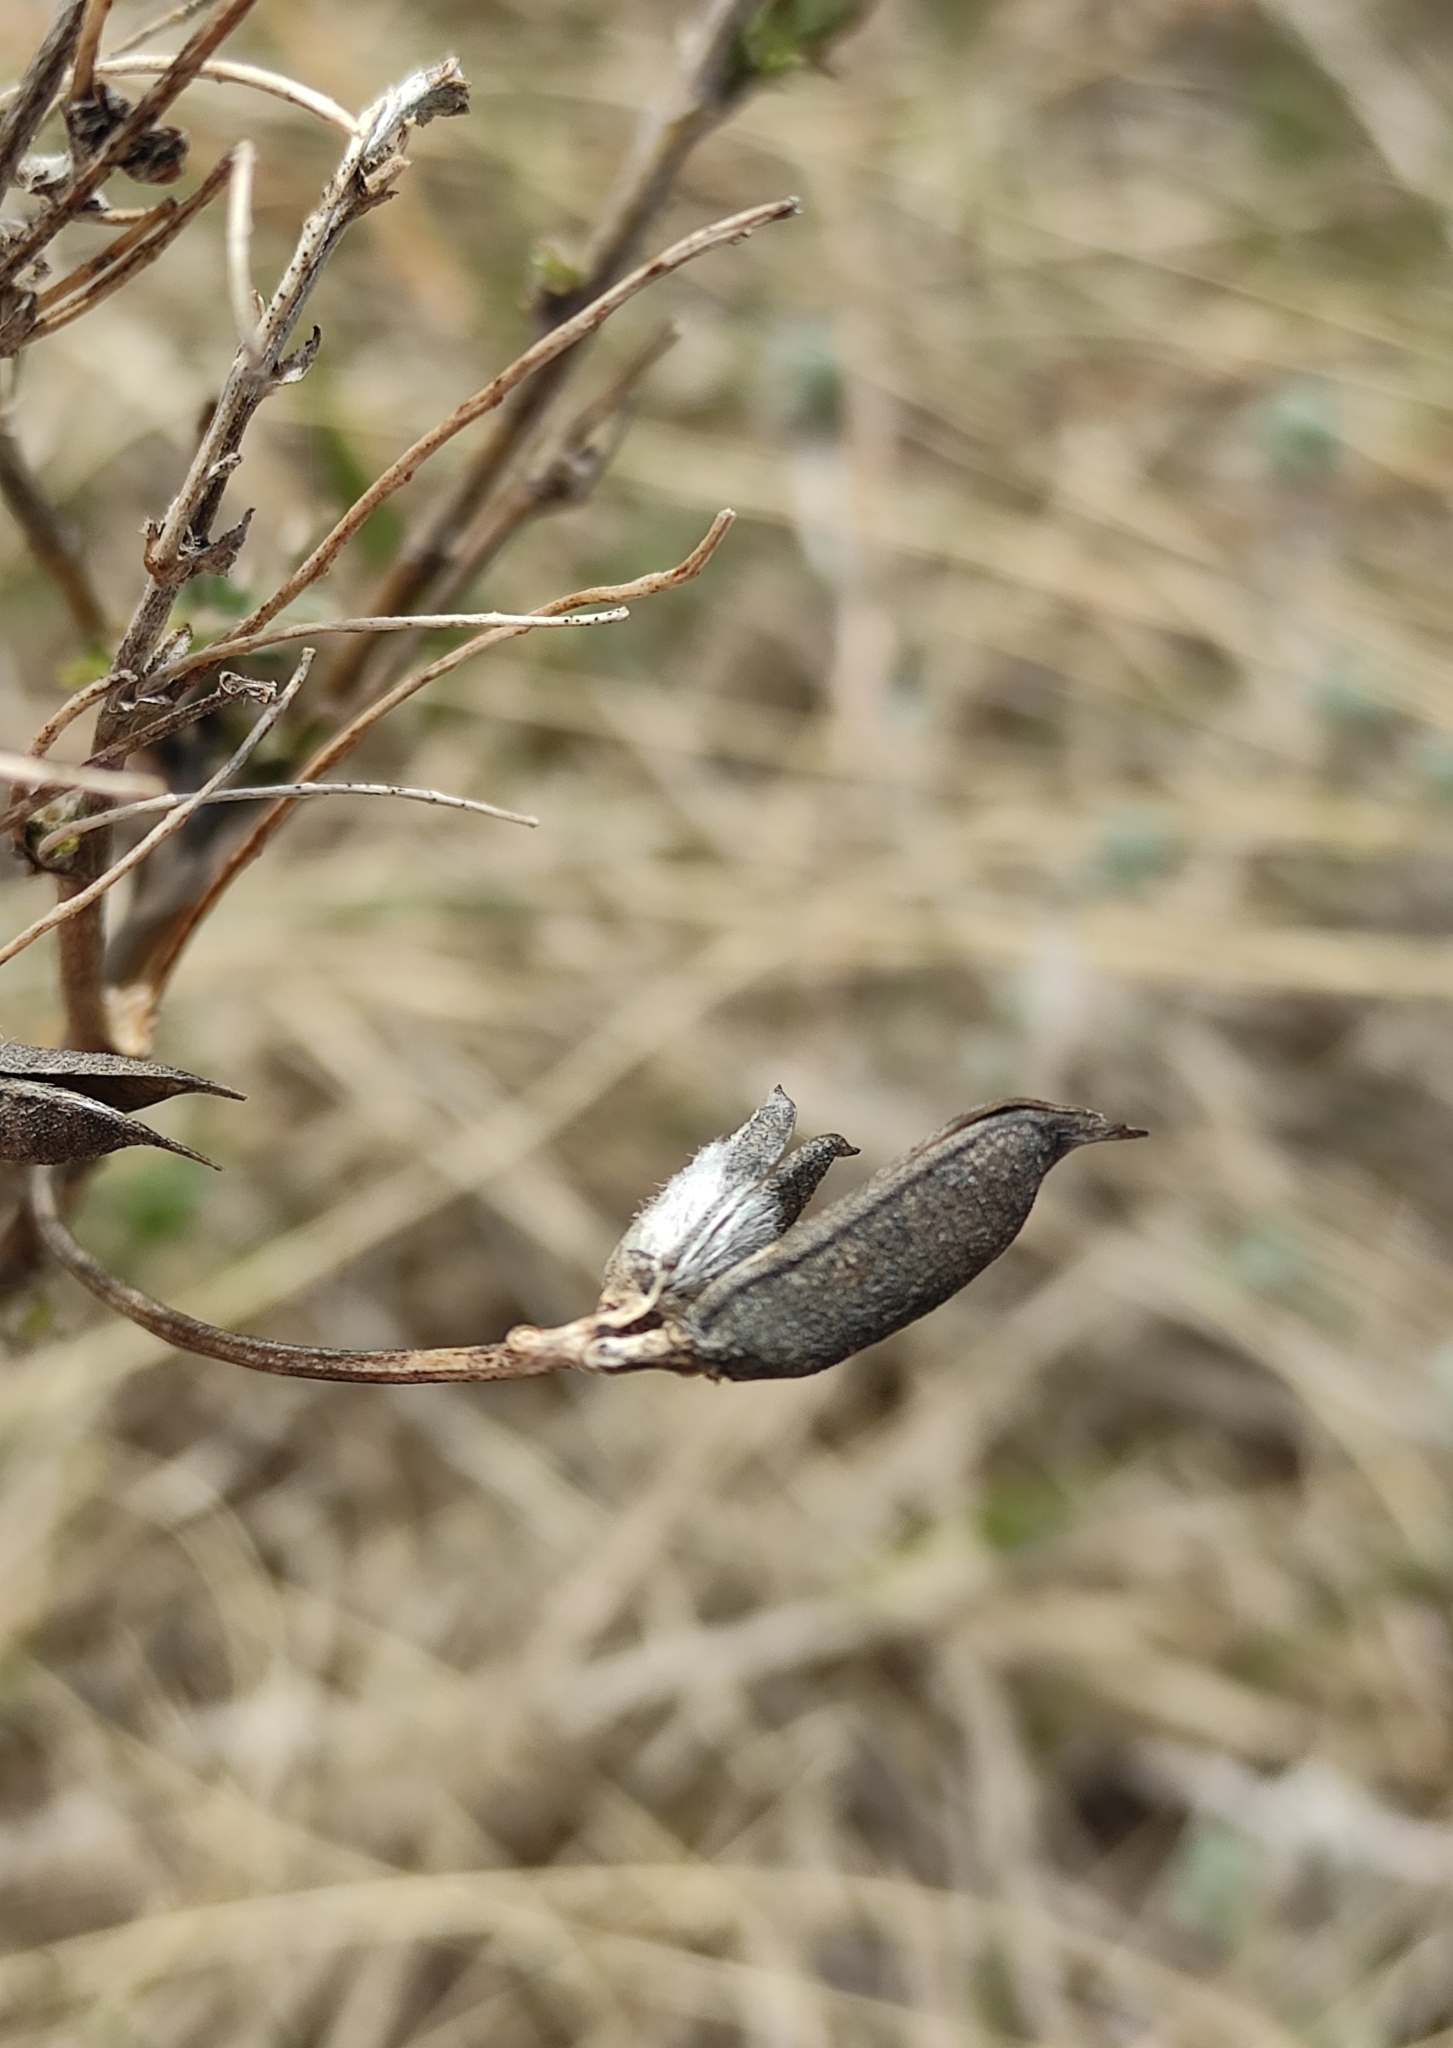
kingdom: Plantae
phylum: Tracheophyta
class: Magnoliopsida
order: Fabales
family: Fabaceae
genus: Astragalus
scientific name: Astragalus syriacus
